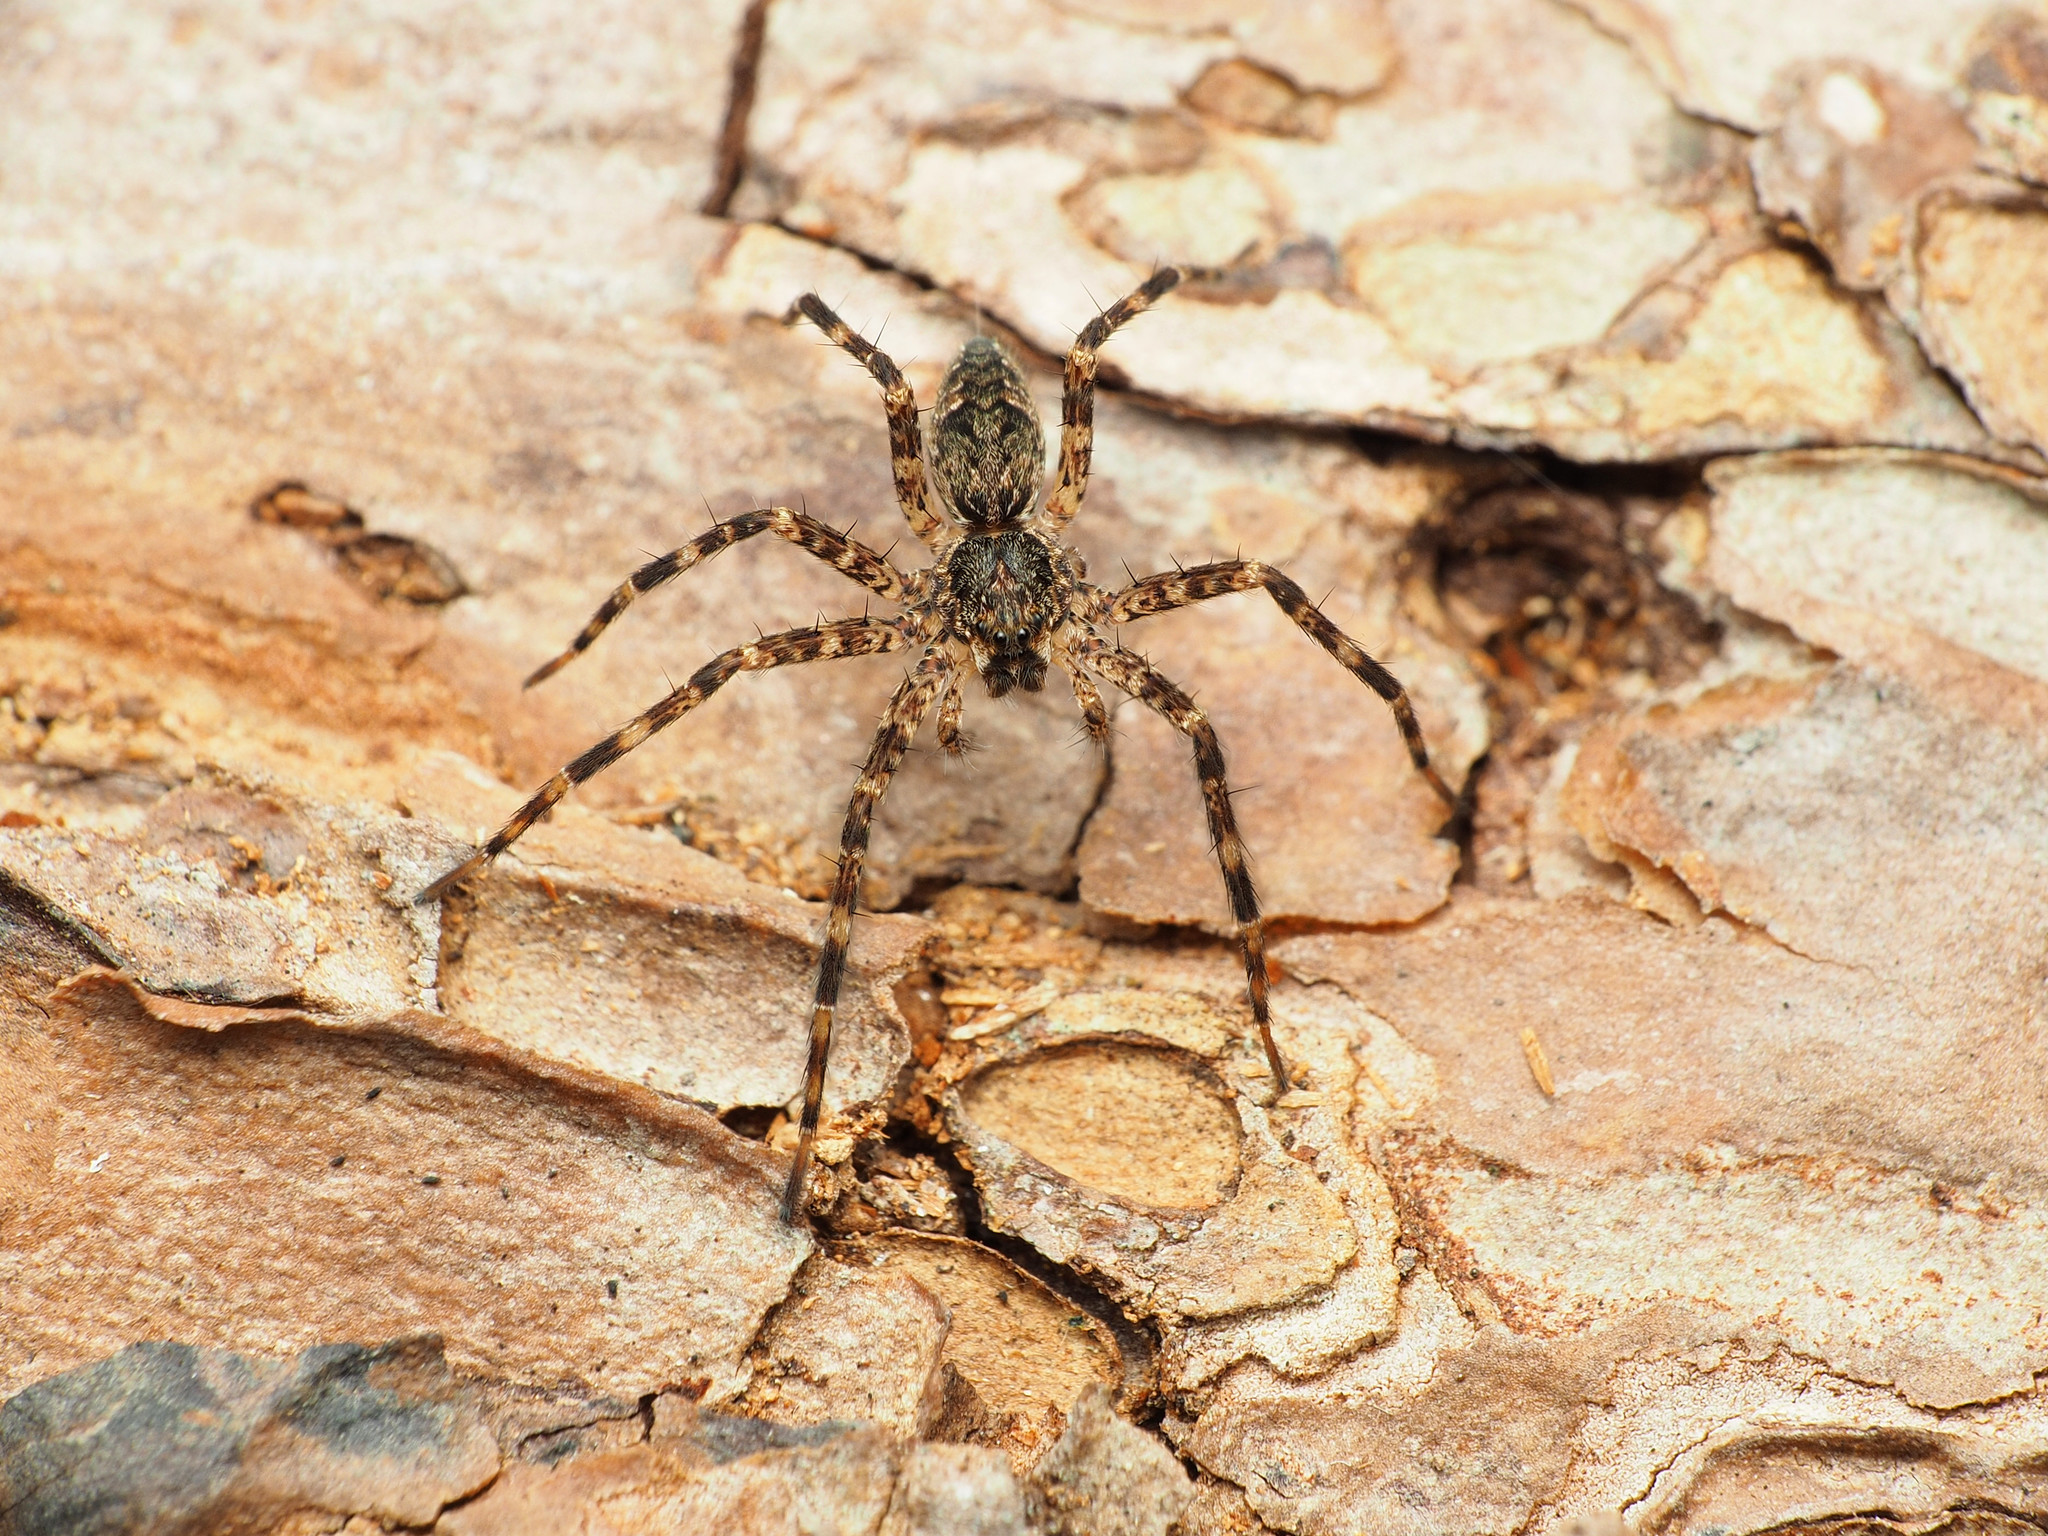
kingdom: Animalia
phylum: Arthropoda
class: Arachnida
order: Araneae
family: Pisauridae
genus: Dolomedes
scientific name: Dolomedes tenebrosus
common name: Dark fishing spider
